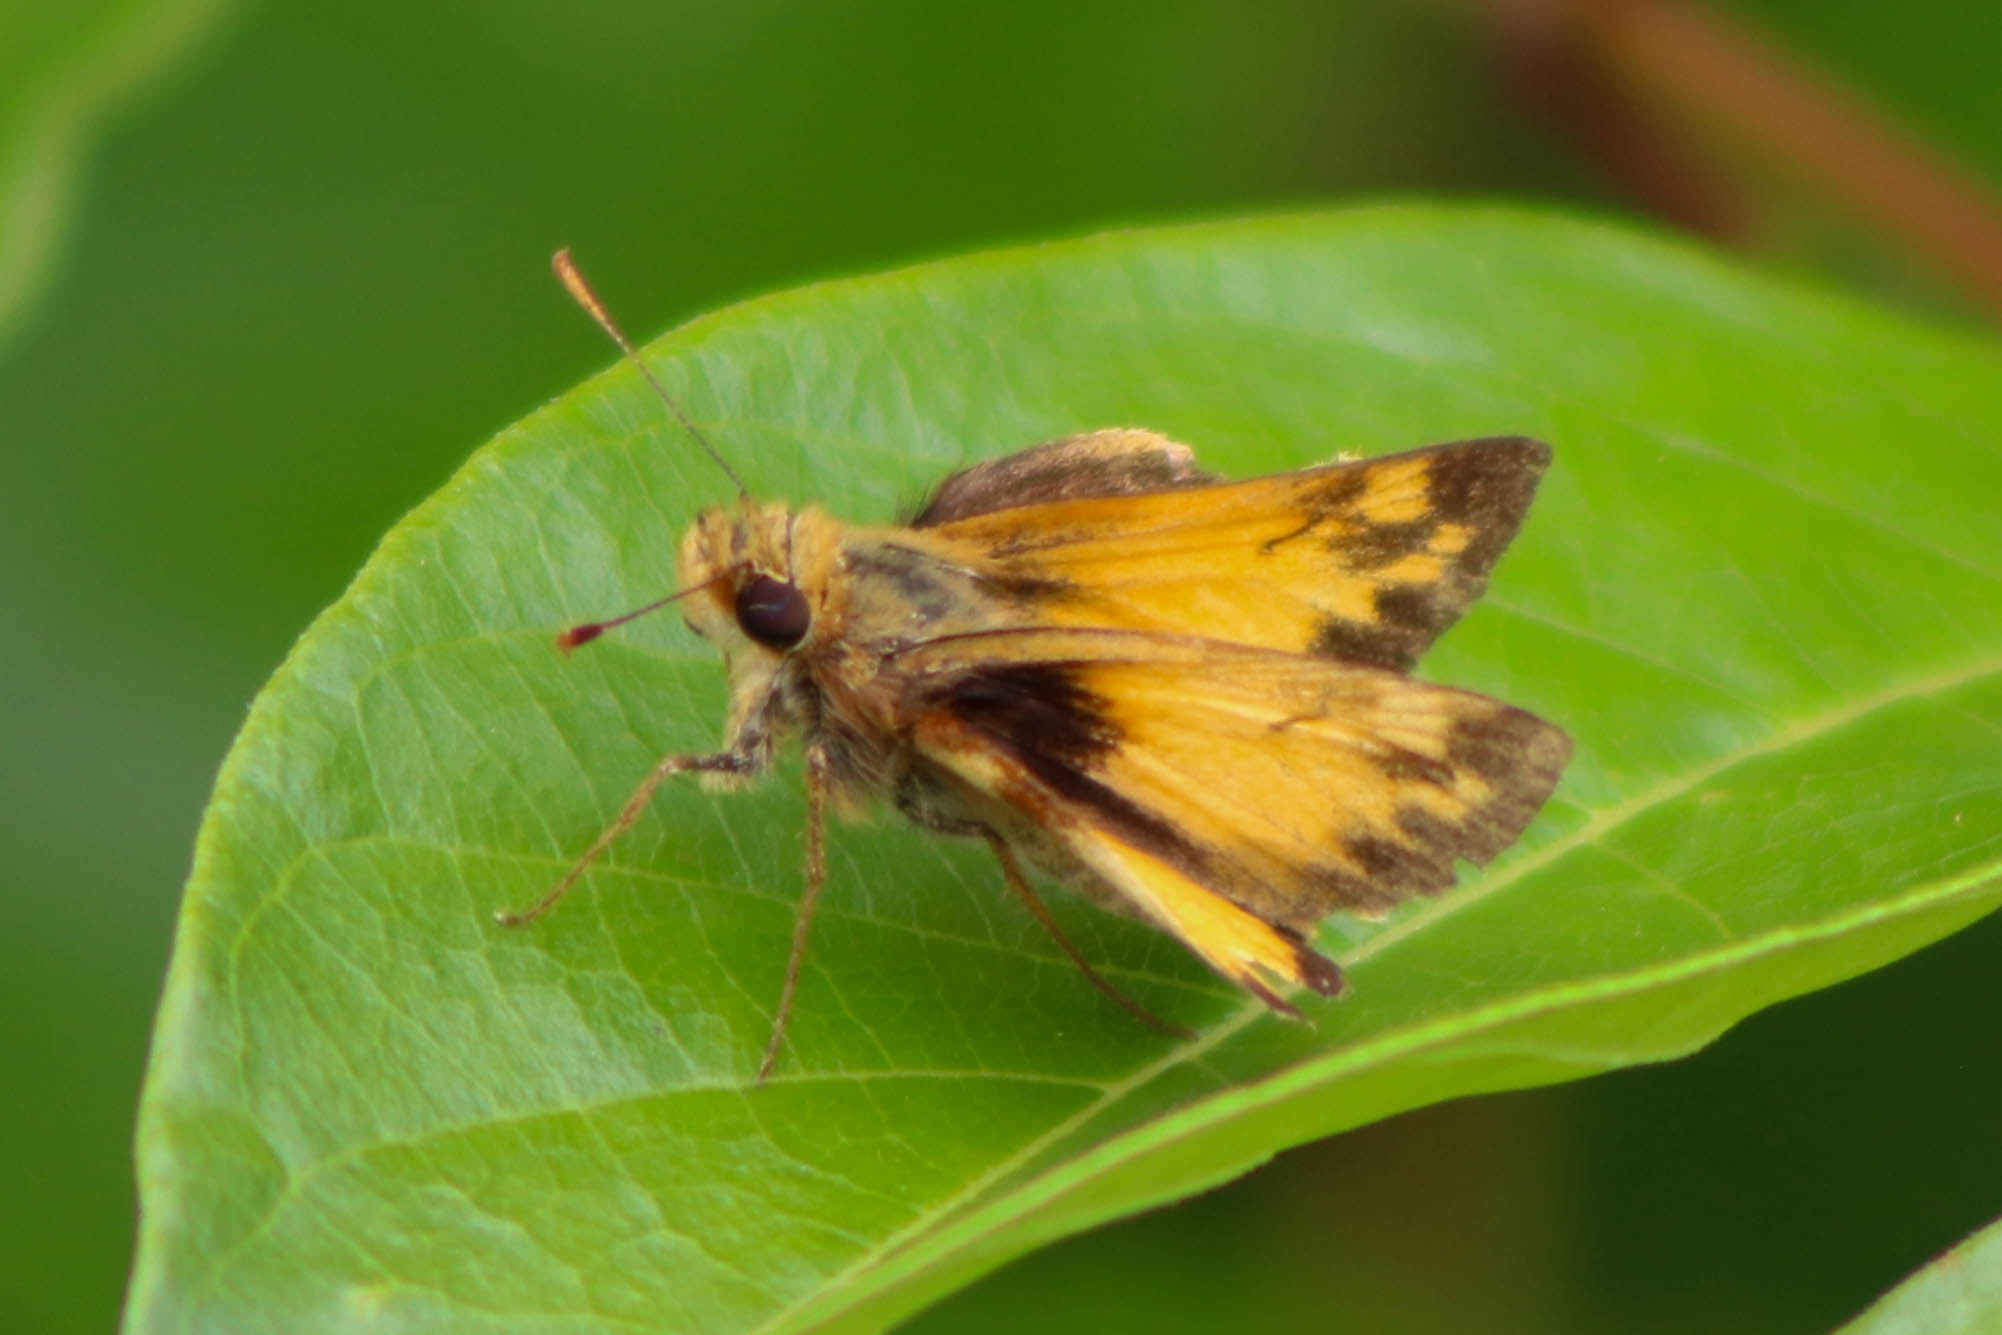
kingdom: Animalia
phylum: Arthropoda
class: Insecta
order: Lepidoptera
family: Hesperiidae
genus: Lon
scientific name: Lon zabulon
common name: Zabulon skipper
